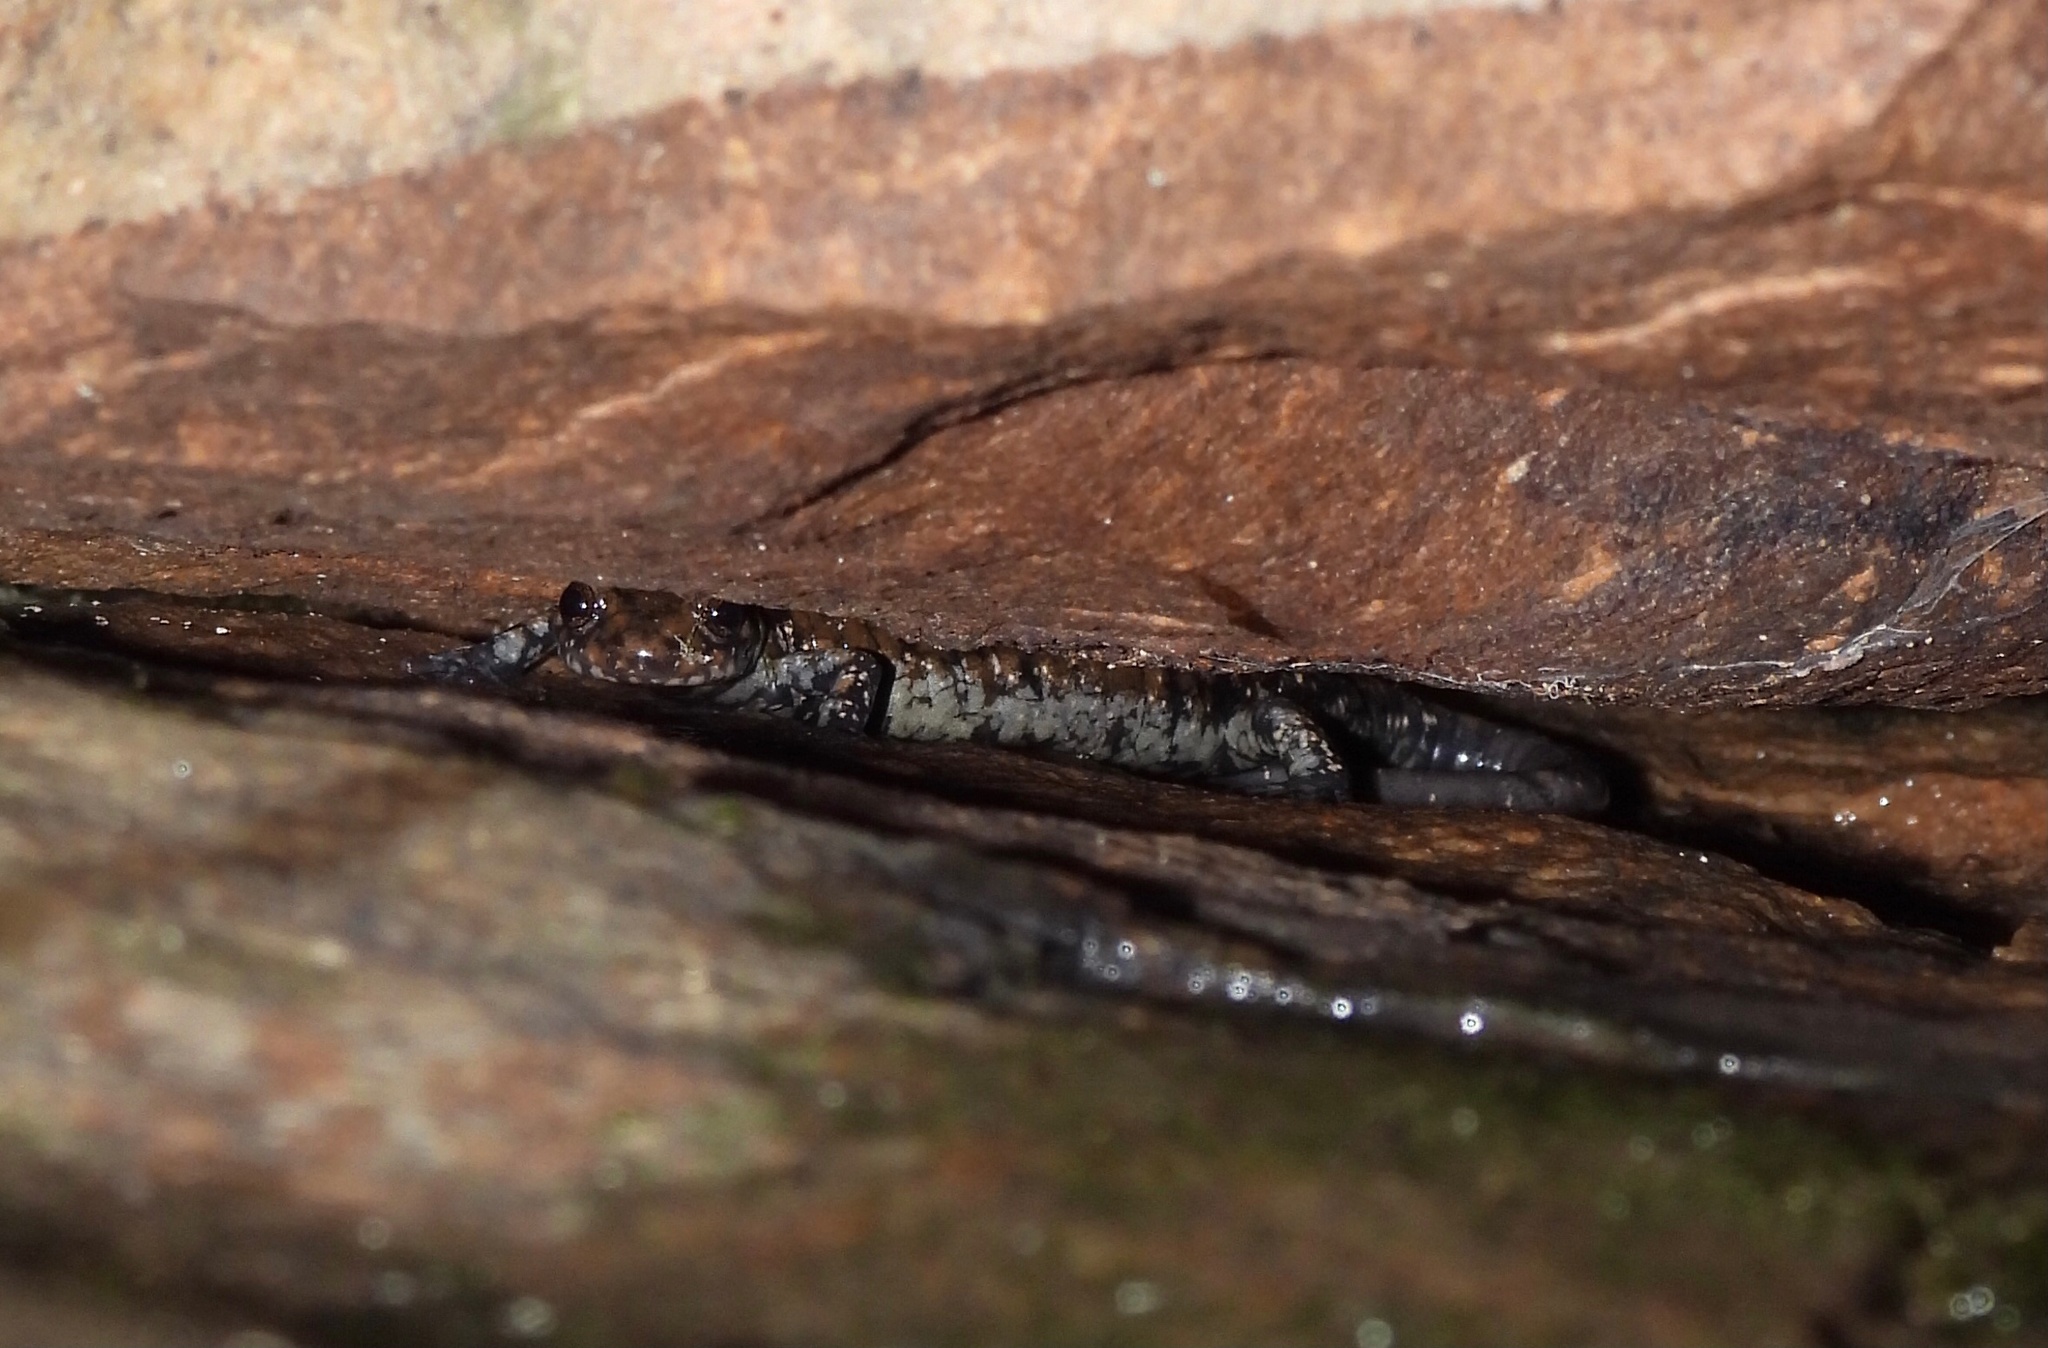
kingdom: Animalia
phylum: Chordata
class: Amphibia
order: Caudata
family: Plethodontidae
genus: Plethodon
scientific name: Plethodon petraeus
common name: Pigeon mountain salamander
